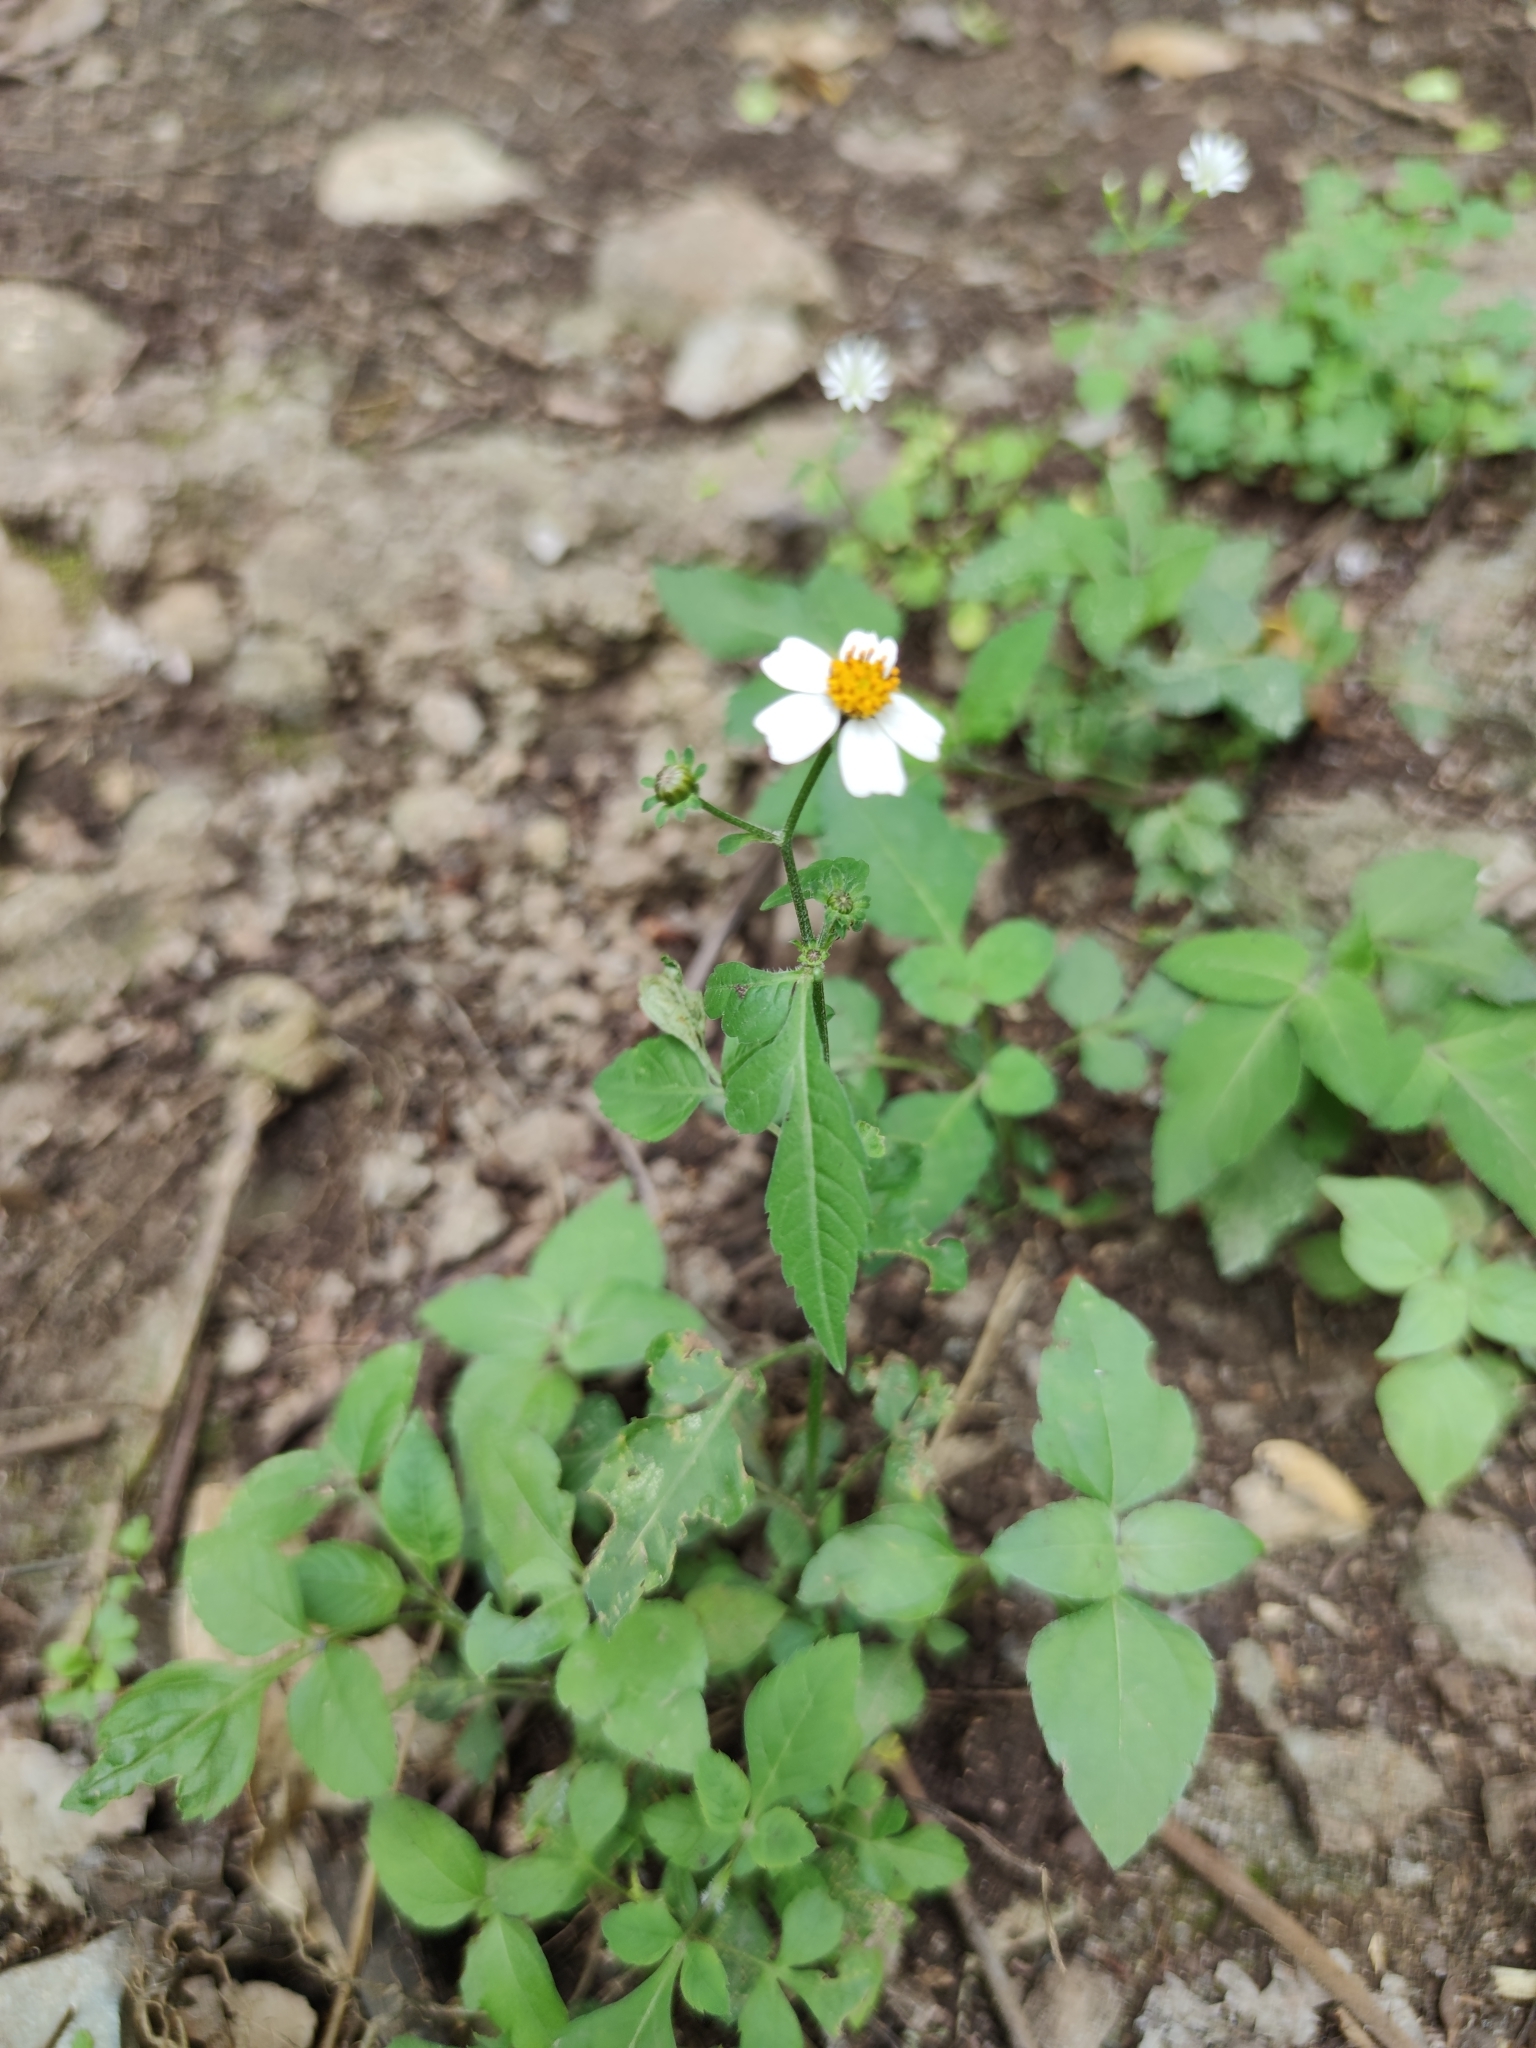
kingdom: Plantae
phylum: Tracheophyta
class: Magnoliopsida
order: Asterales
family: Asteraceae
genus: Bidens
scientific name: Bidens pilosa
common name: Black-jack
